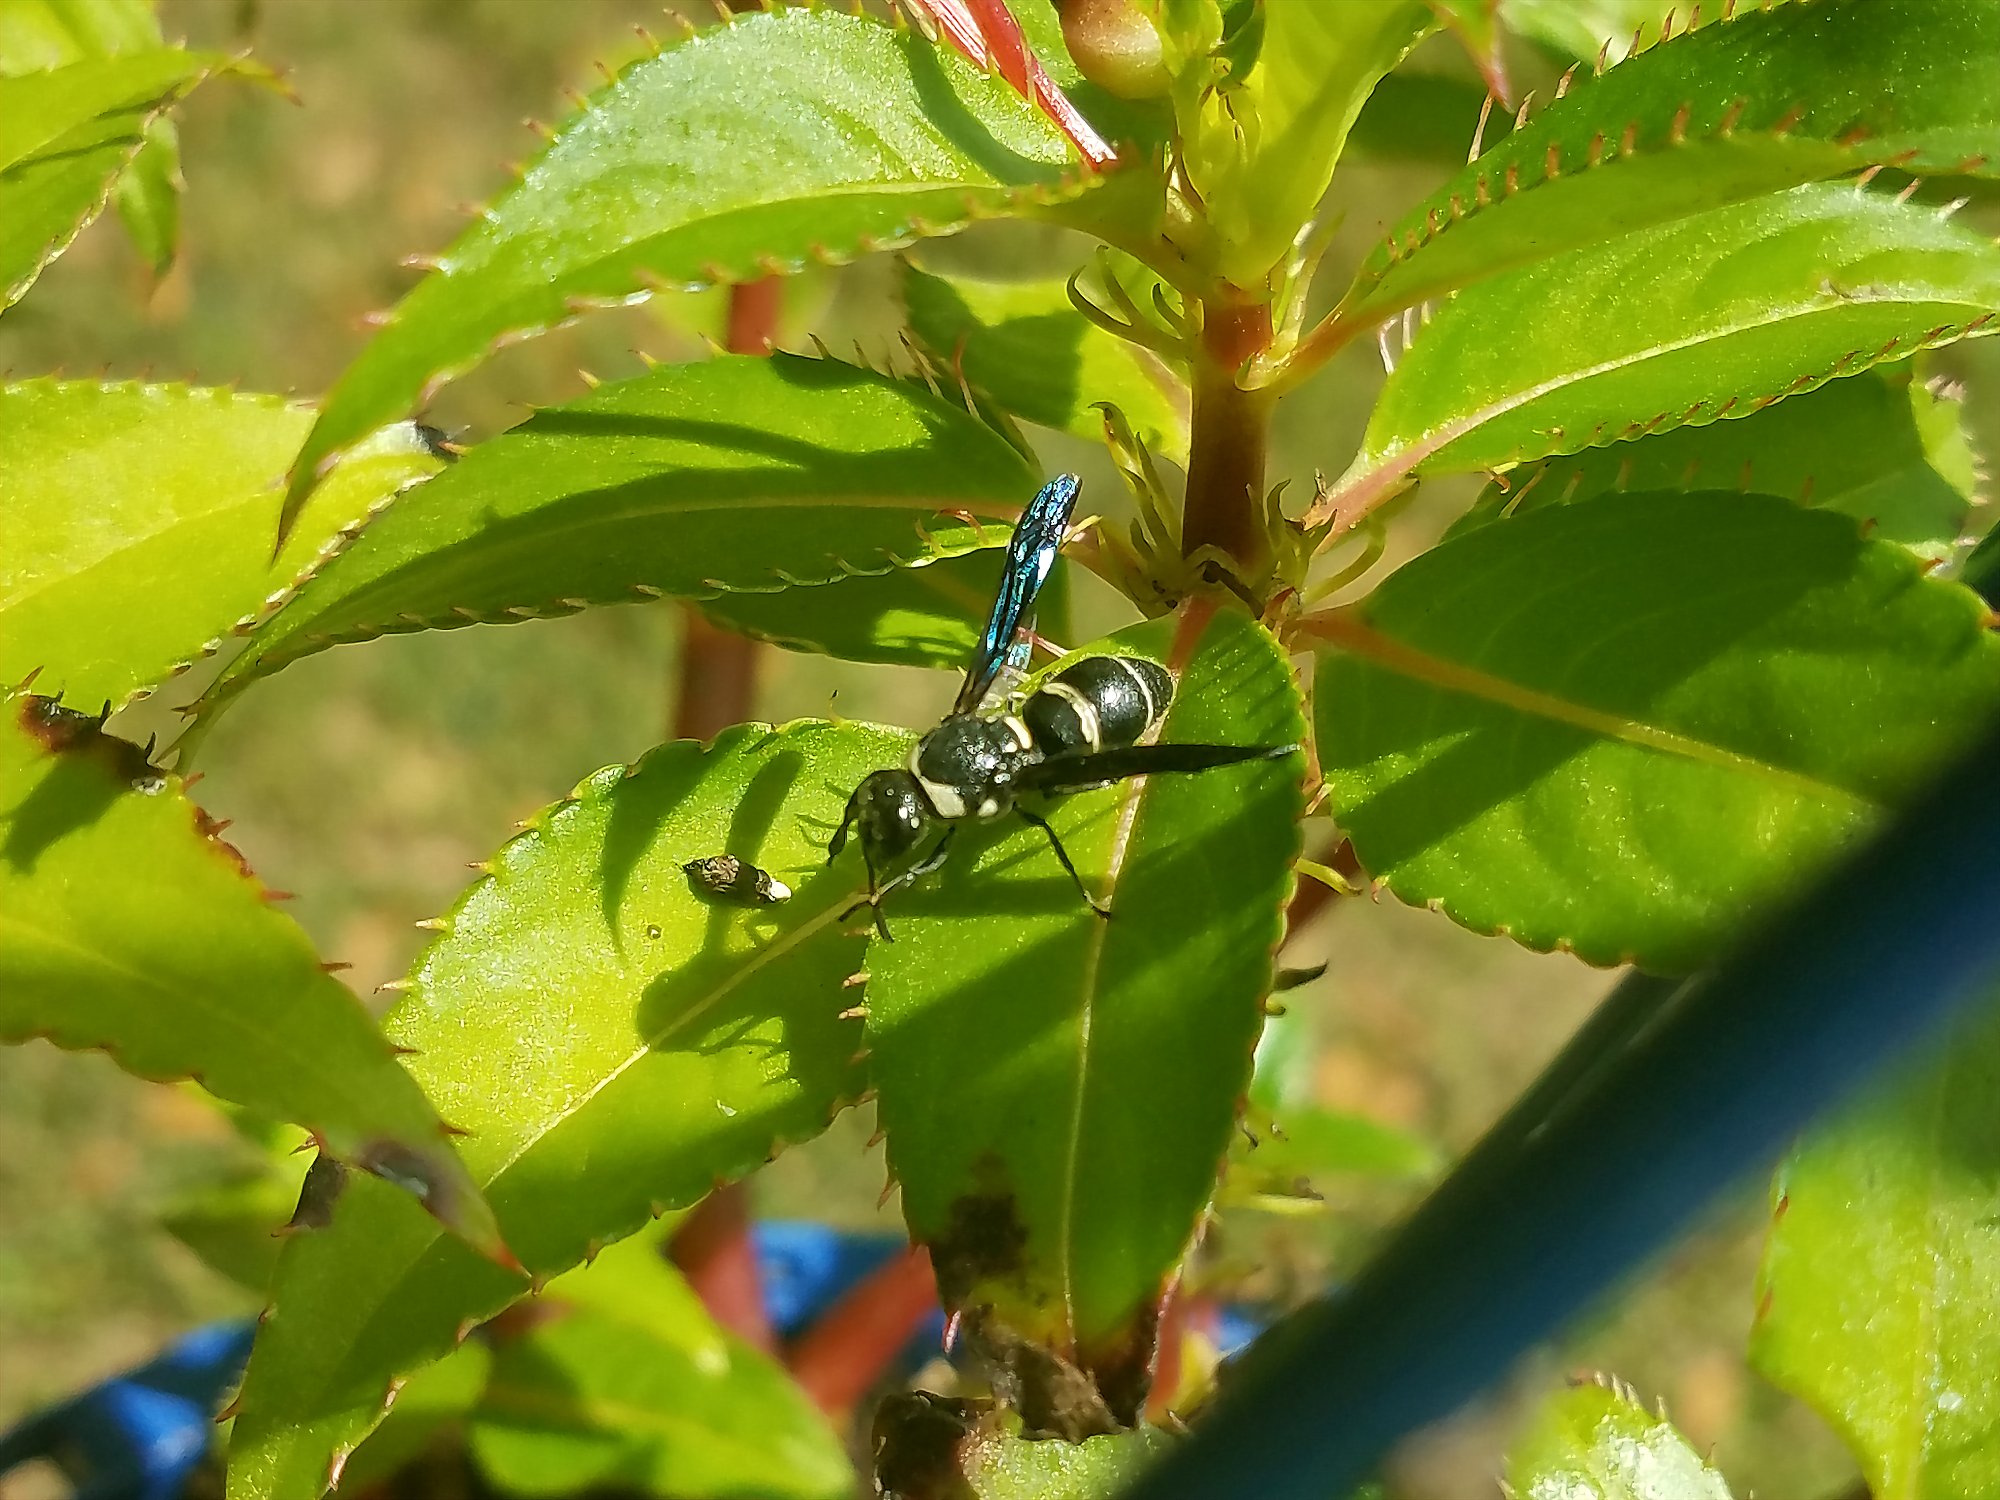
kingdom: Animalia
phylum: Arthropoda
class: Insecta
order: Hymenoptera
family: Eumenidae
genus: Euodynerus
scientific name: Euodynerus megaera
